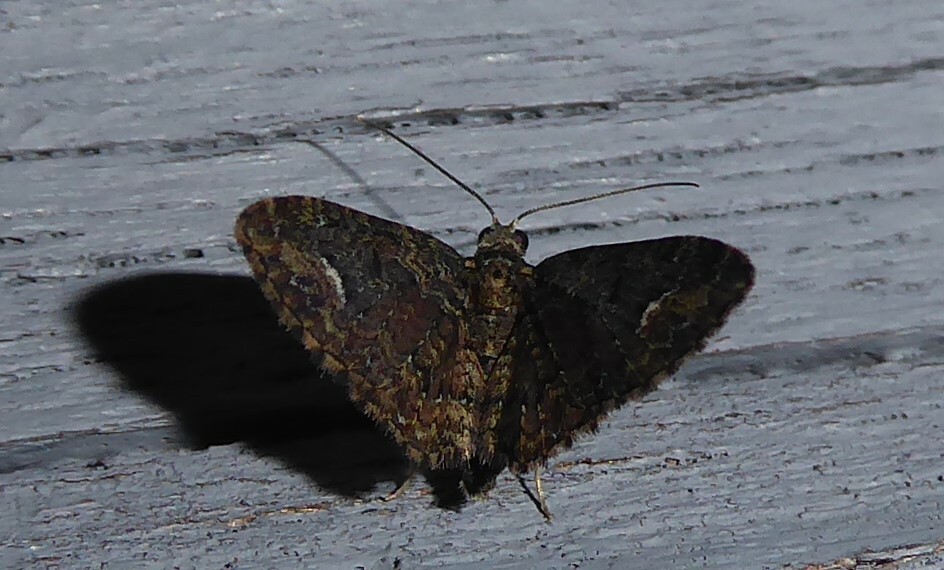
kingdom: Animalia
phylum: Arthropoda
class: Insecta
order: Lepidoptera
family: Geometridae
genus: Pasiphilodes
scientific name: Pasiphilodes testulata
